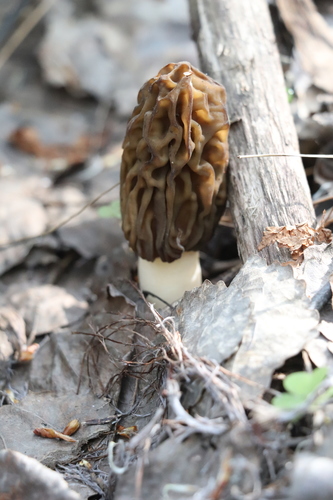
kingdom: Fungi
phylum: Ascomycota
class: Pezizomycetes
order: Pezizales
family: Morchellaceae
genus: Verpa
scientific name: Verpa bohemica
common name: Wrinkled thimble morel
